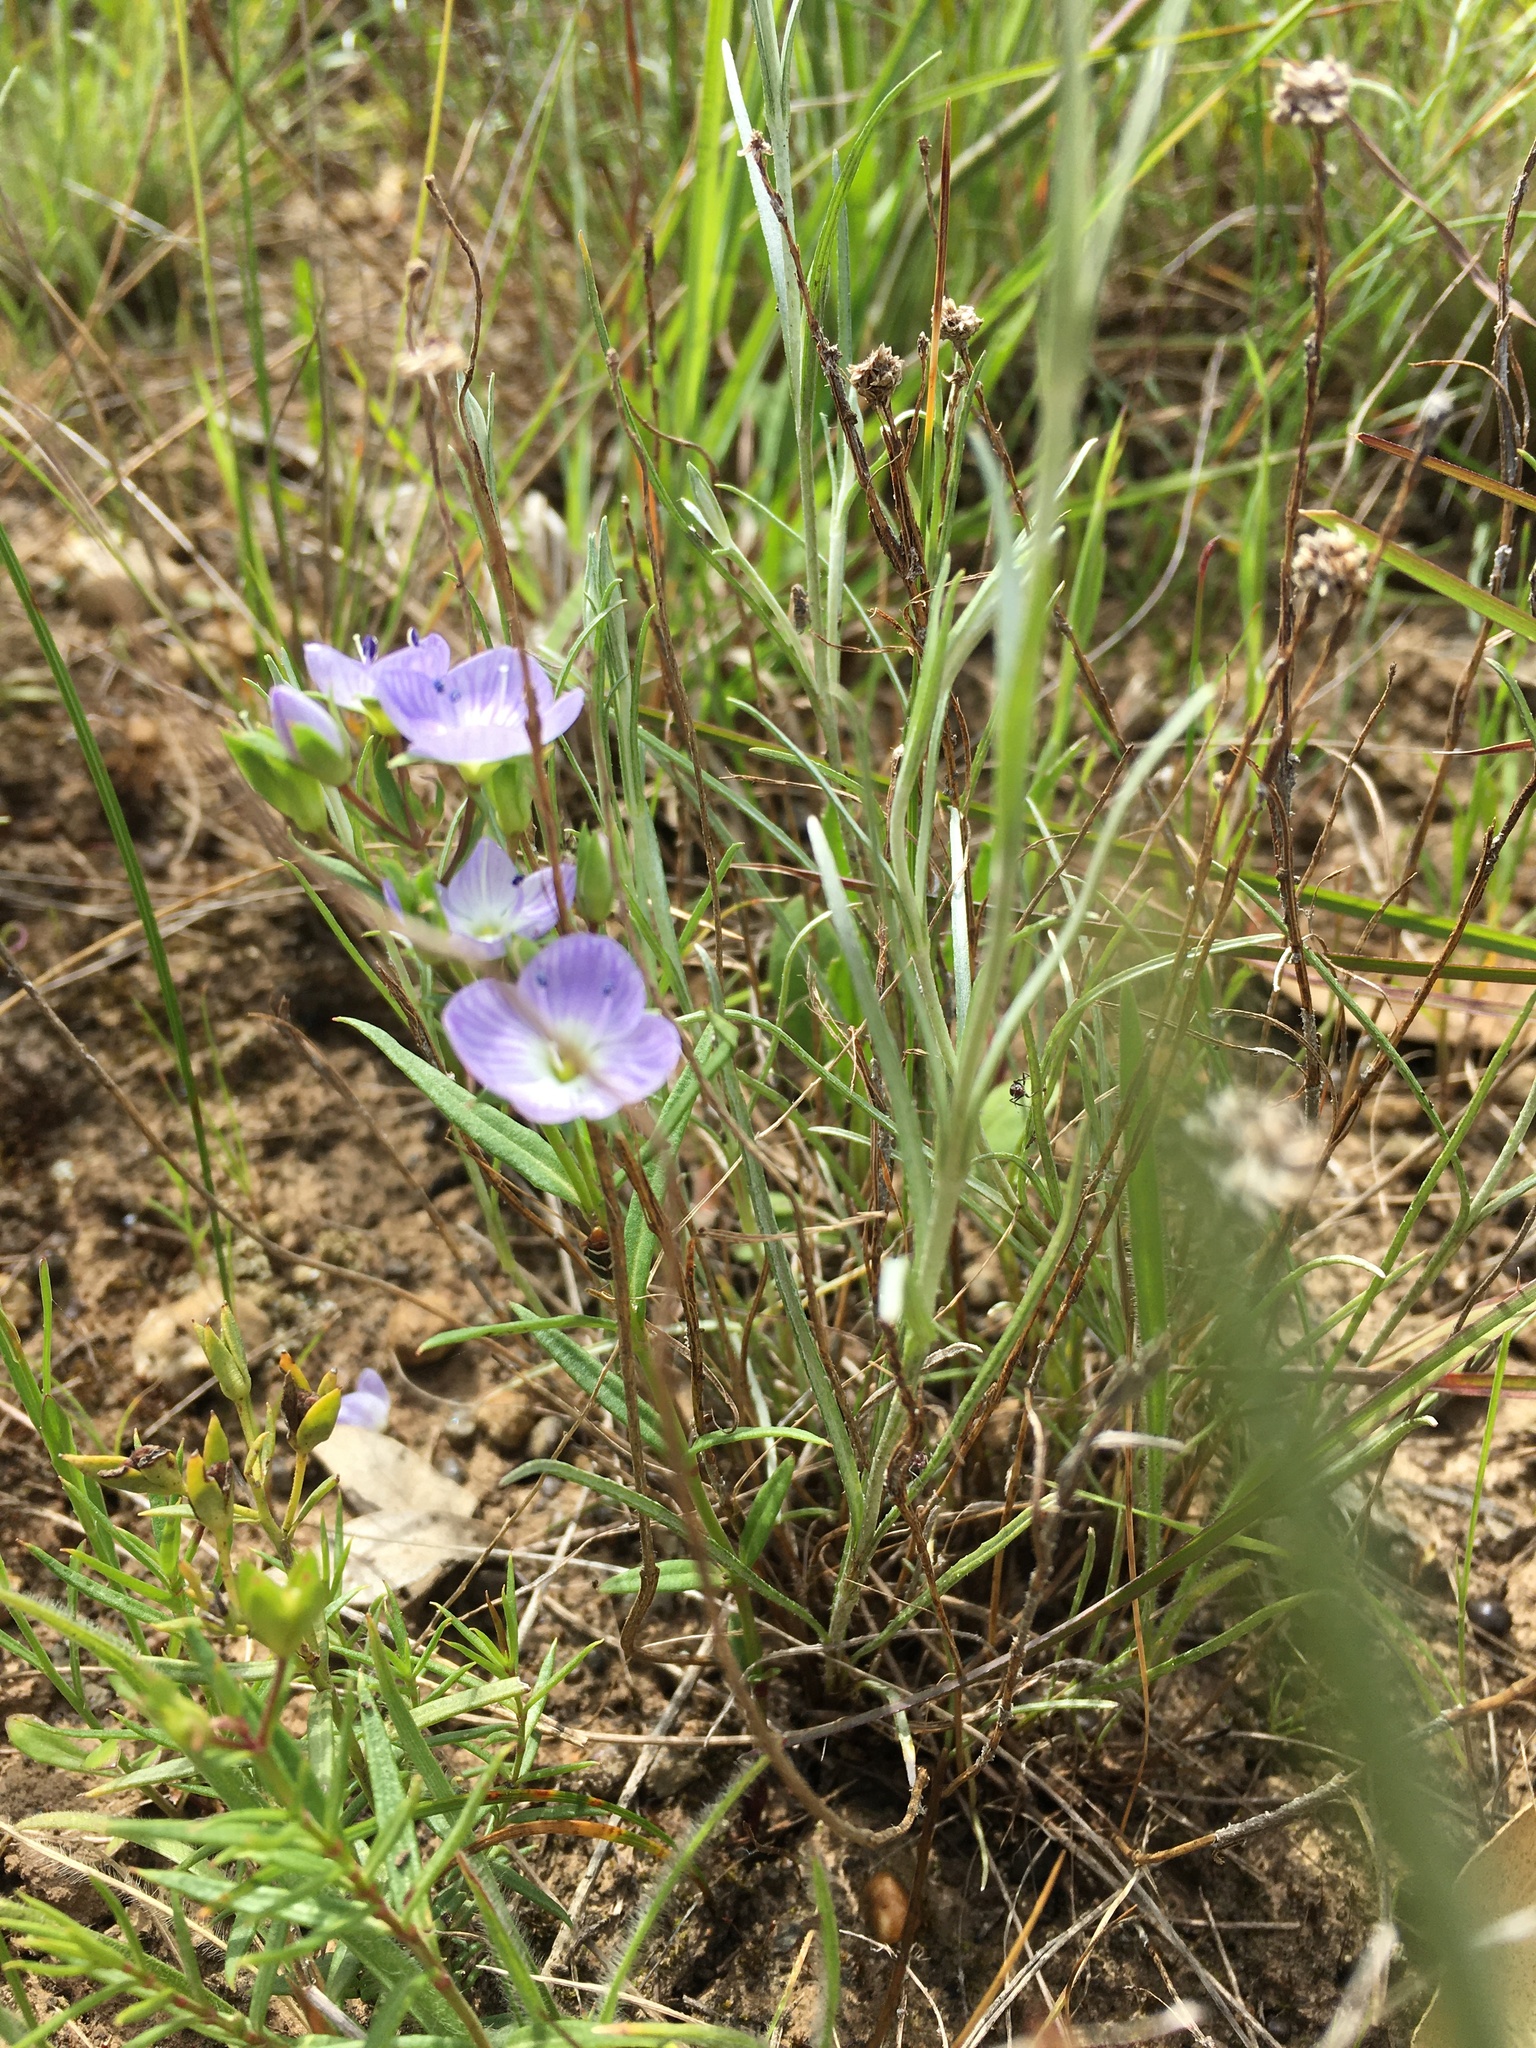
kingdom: Plantae
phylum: Tracheophyta
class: Magnoliopsida
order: Lamiales
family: Plantaginaceae
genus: Veronica
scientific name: Veronica gracilis
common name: Slender speedwell
